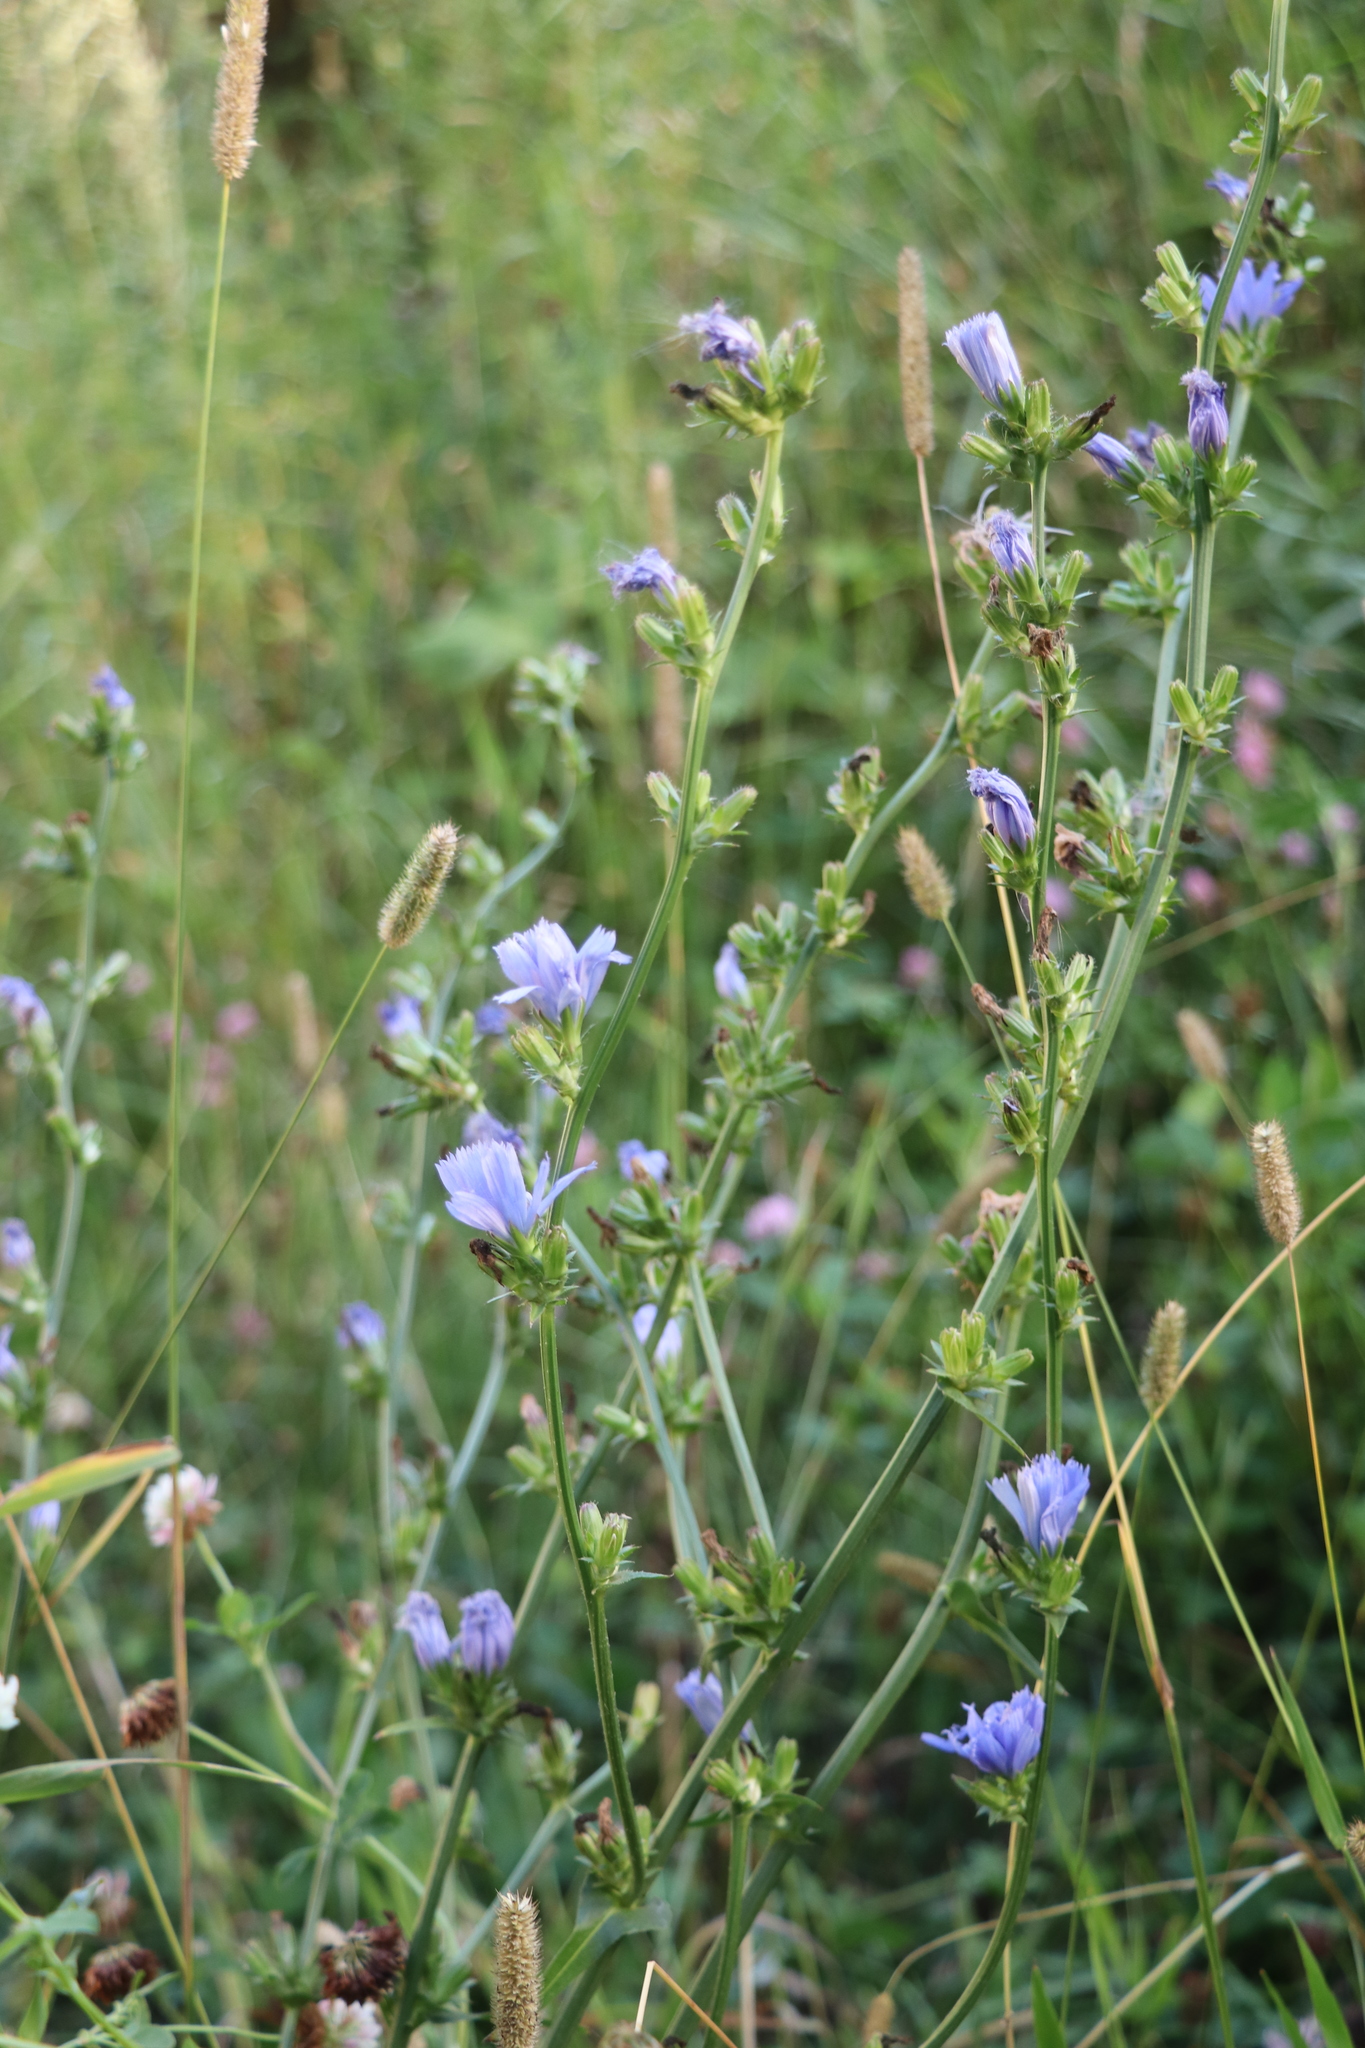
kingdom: Plantae
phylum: Tracheophyta
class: Magnoliopsida
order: Asterales
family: Asteraceae
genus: Cichorium
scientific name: Cichorium intybus
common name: Chicory
